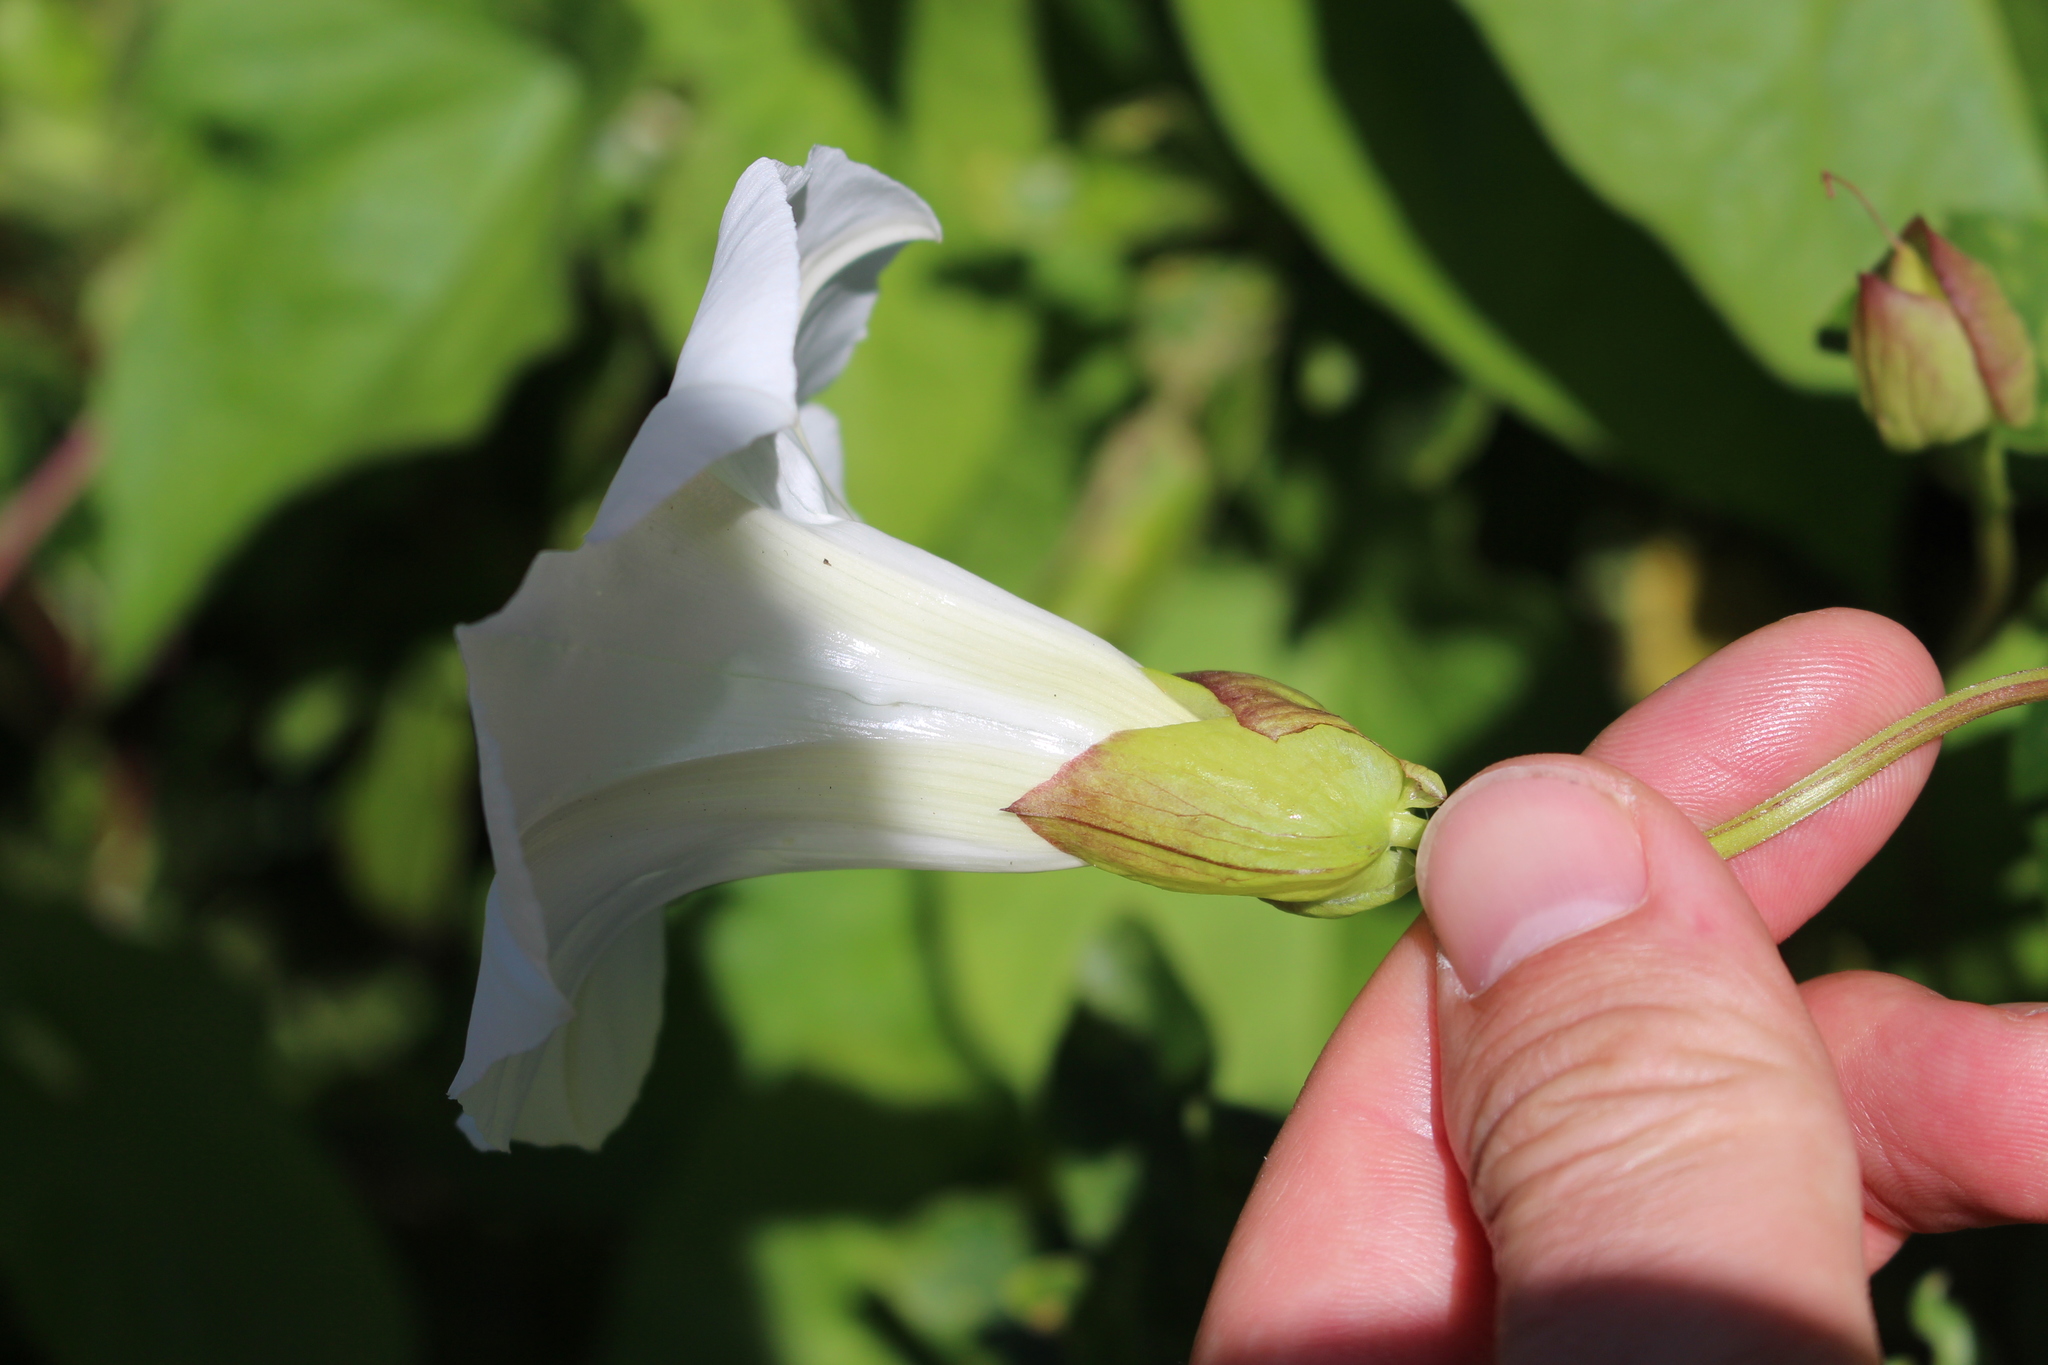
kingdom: Plantae
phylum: Tracheophyta
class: Magnoliopsida
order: Solanales
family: Convolvulaceae
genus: Calystegia
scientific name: Calystegia silvatica
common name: Large bindweed
